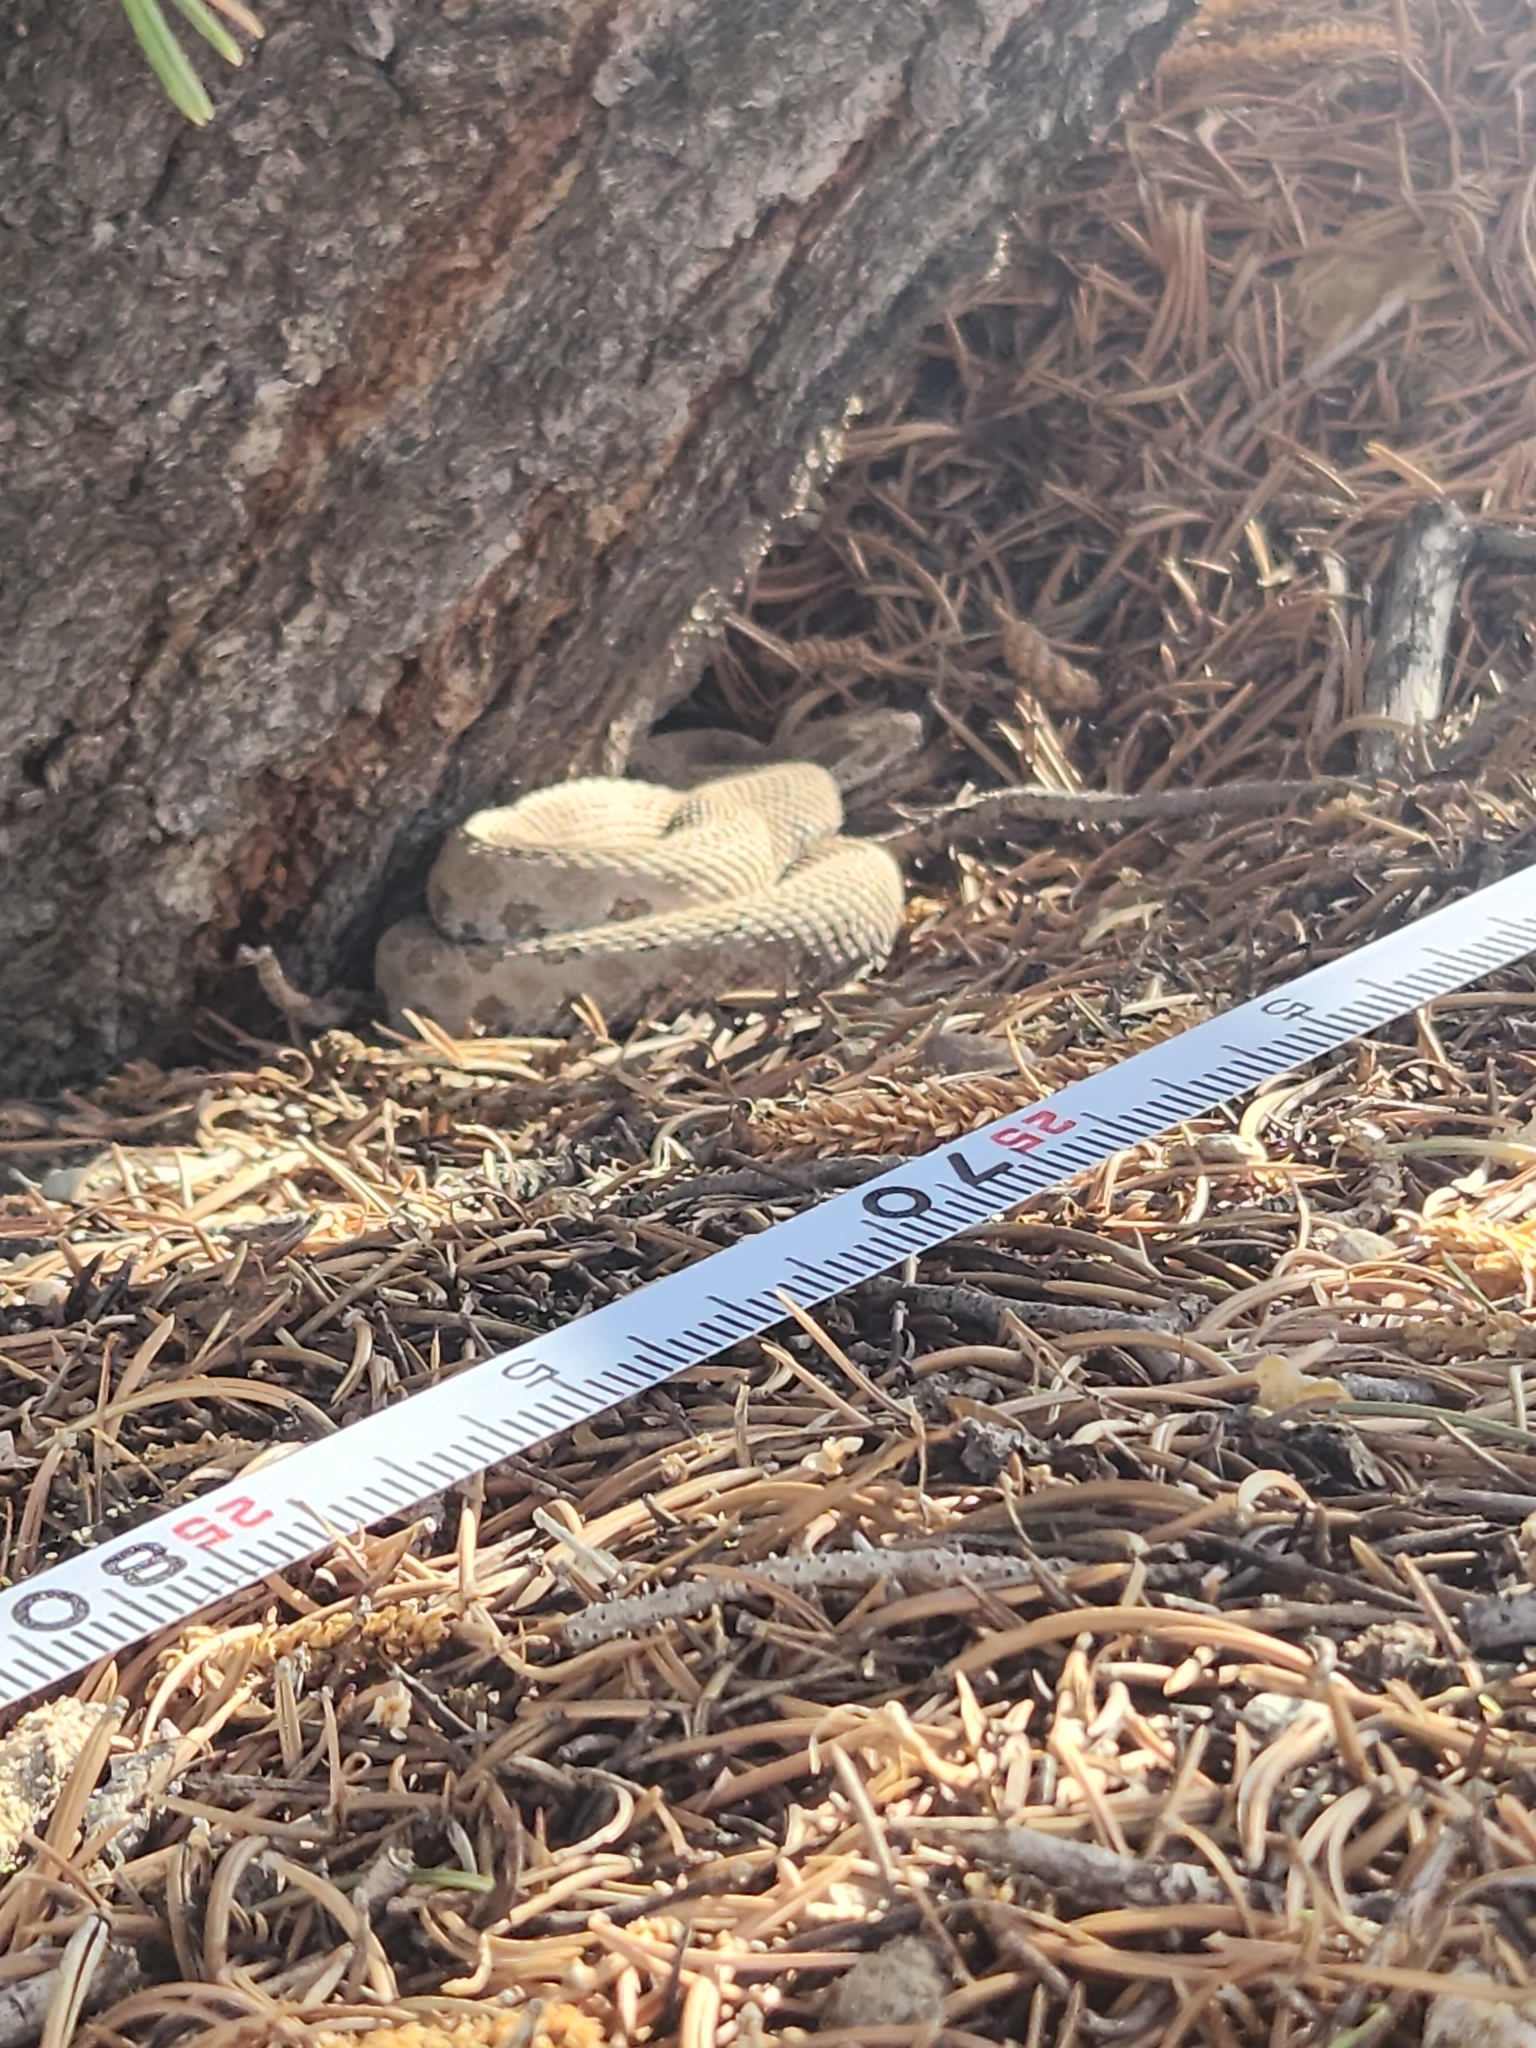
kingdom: Animalia
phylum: Chordata
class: Squamata
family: Viperidae
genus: Crotalus
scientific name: Crotalus oreganus
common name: Abyssus
